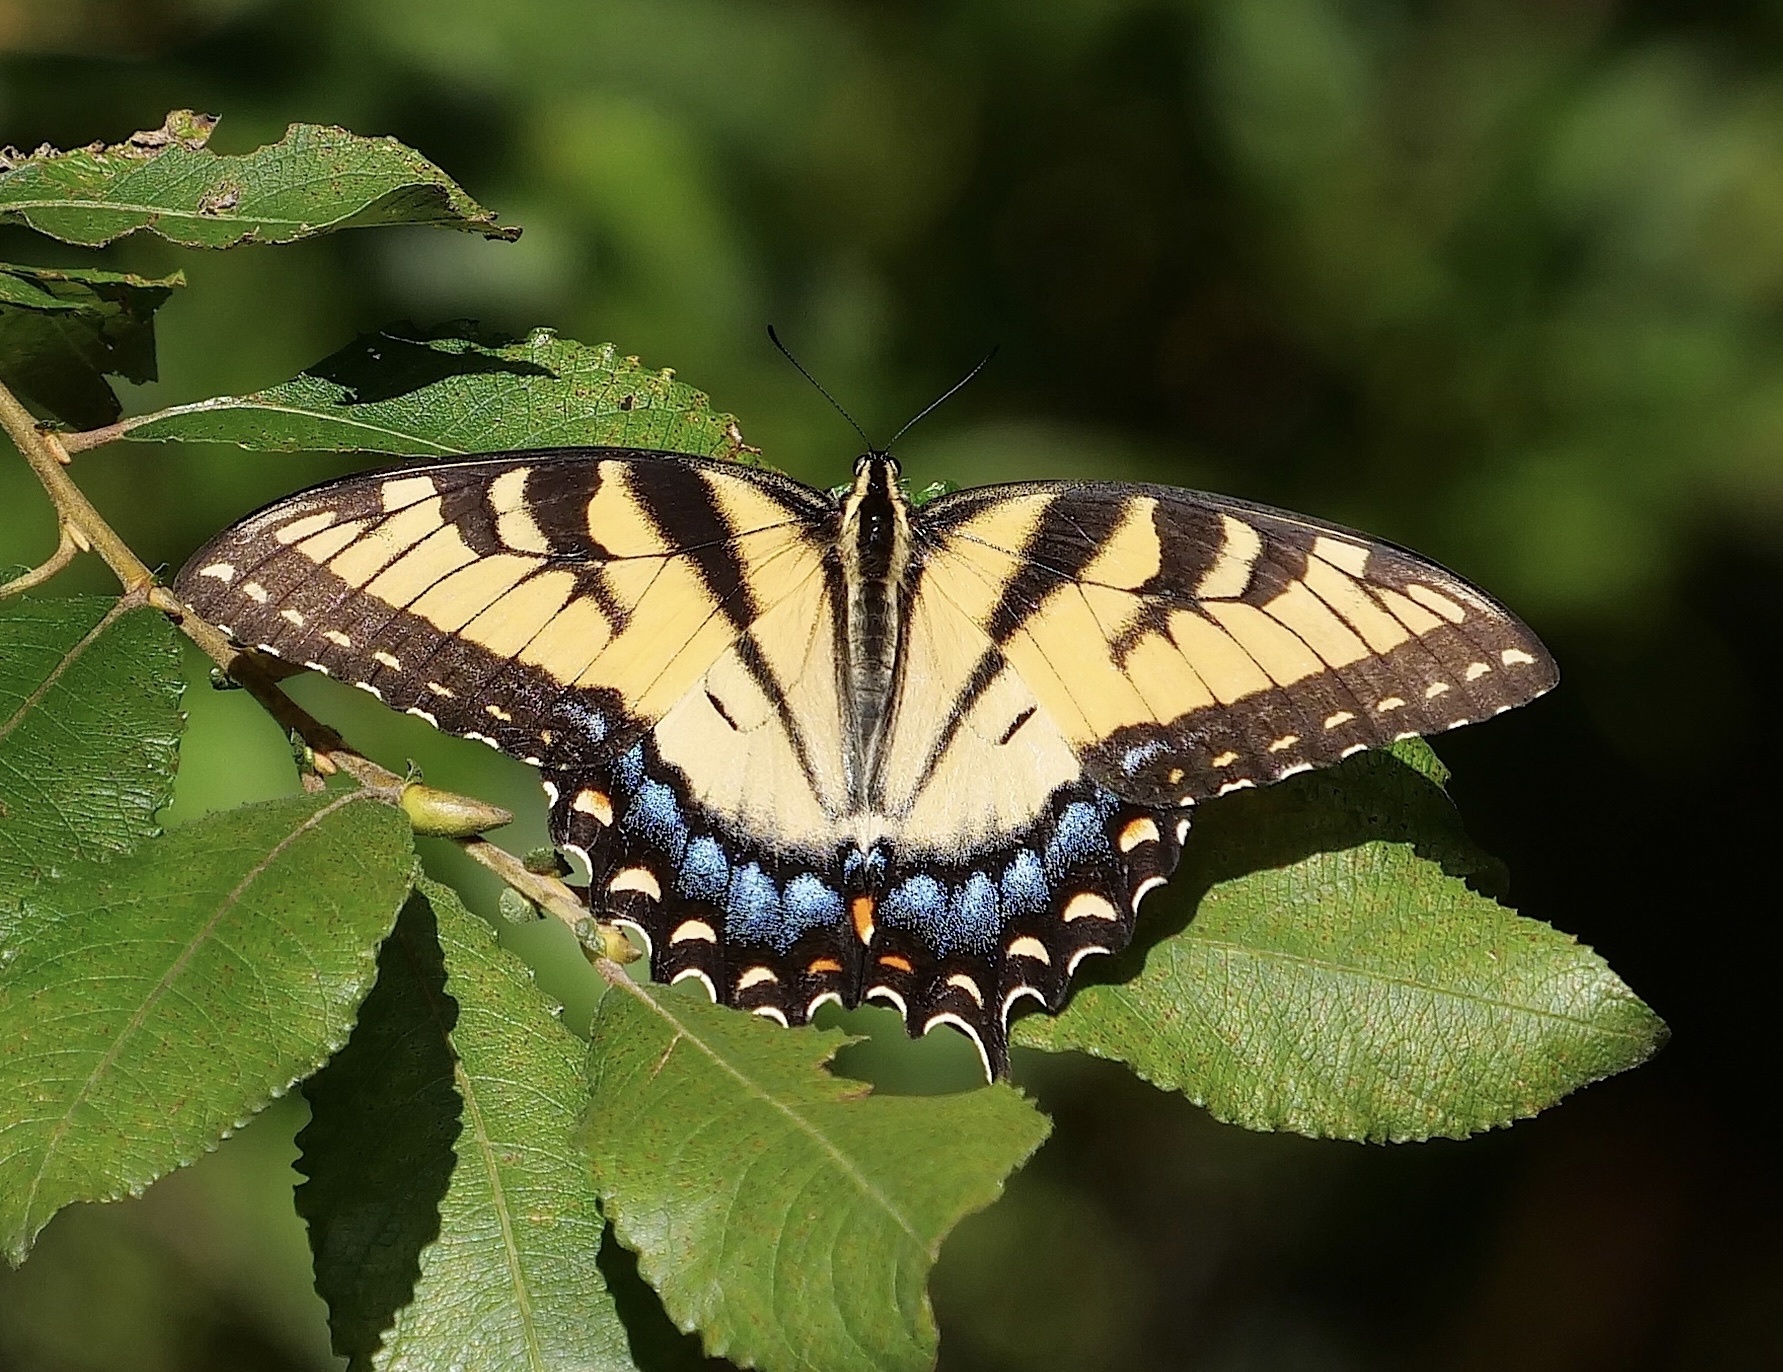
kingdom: Animalia
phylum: Arthropoda
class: Insecta
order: Lepidoptera
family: Papilionidae
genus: Papilio
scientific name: Papilio glaucus
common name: Tiger swallowtail
